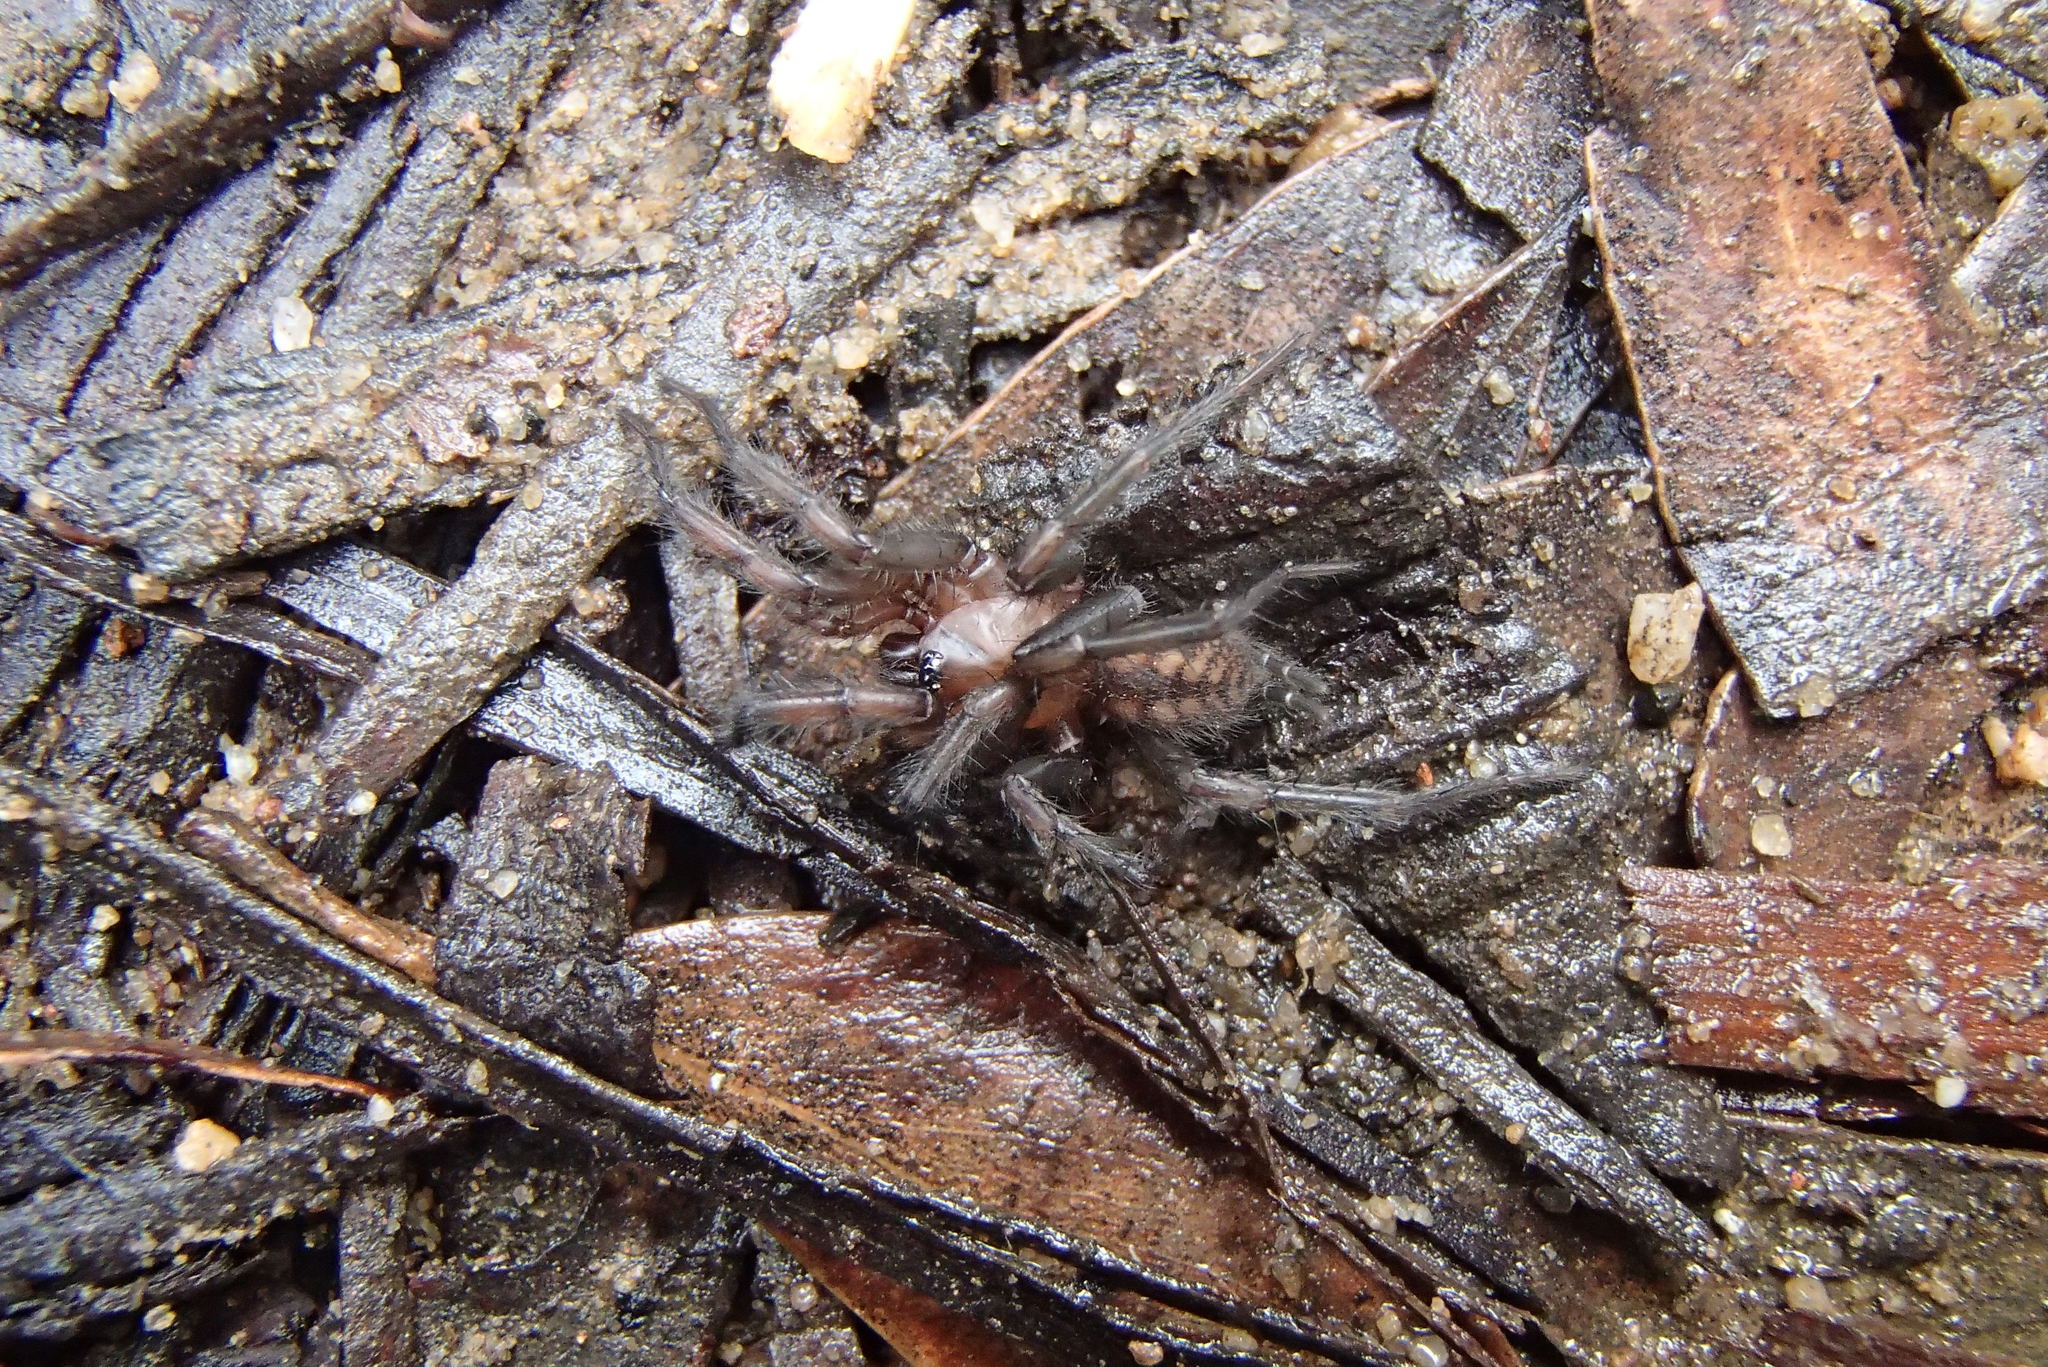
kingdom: Animalia
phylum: Arthropoda
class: Arachnida
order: Araneae
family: Hexathelidae
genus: Paraembolides
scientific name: Paraembolides variabilis
